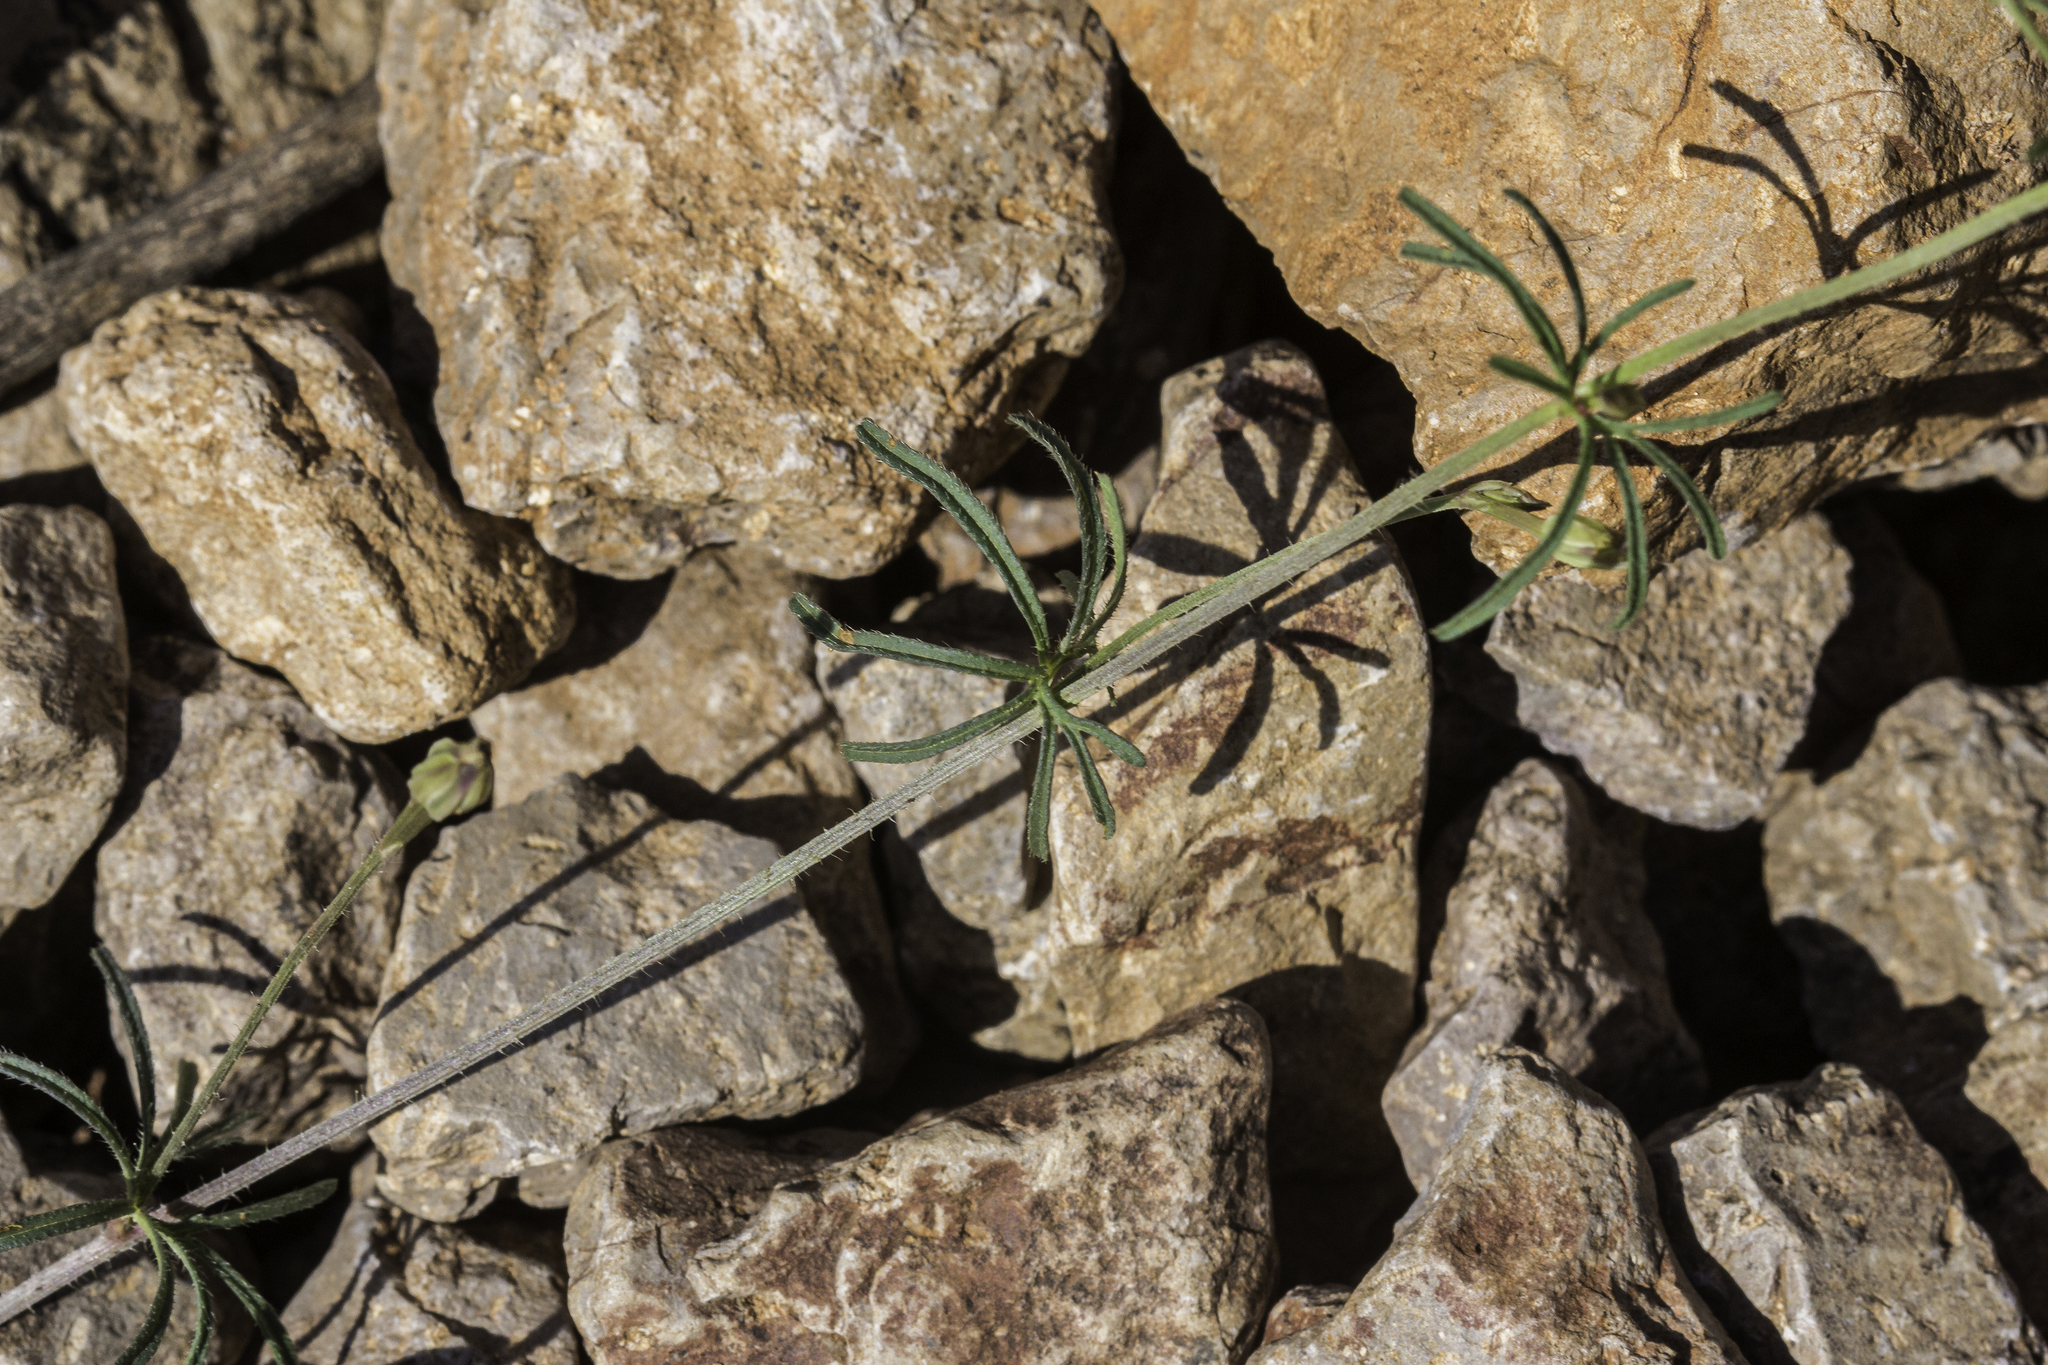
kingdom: Plantae
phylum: Tracheophyta
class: Magnoliopsida
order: Solanales
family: Convolvulaceae
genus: Ipomoea
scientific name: Ipomoea costellata
